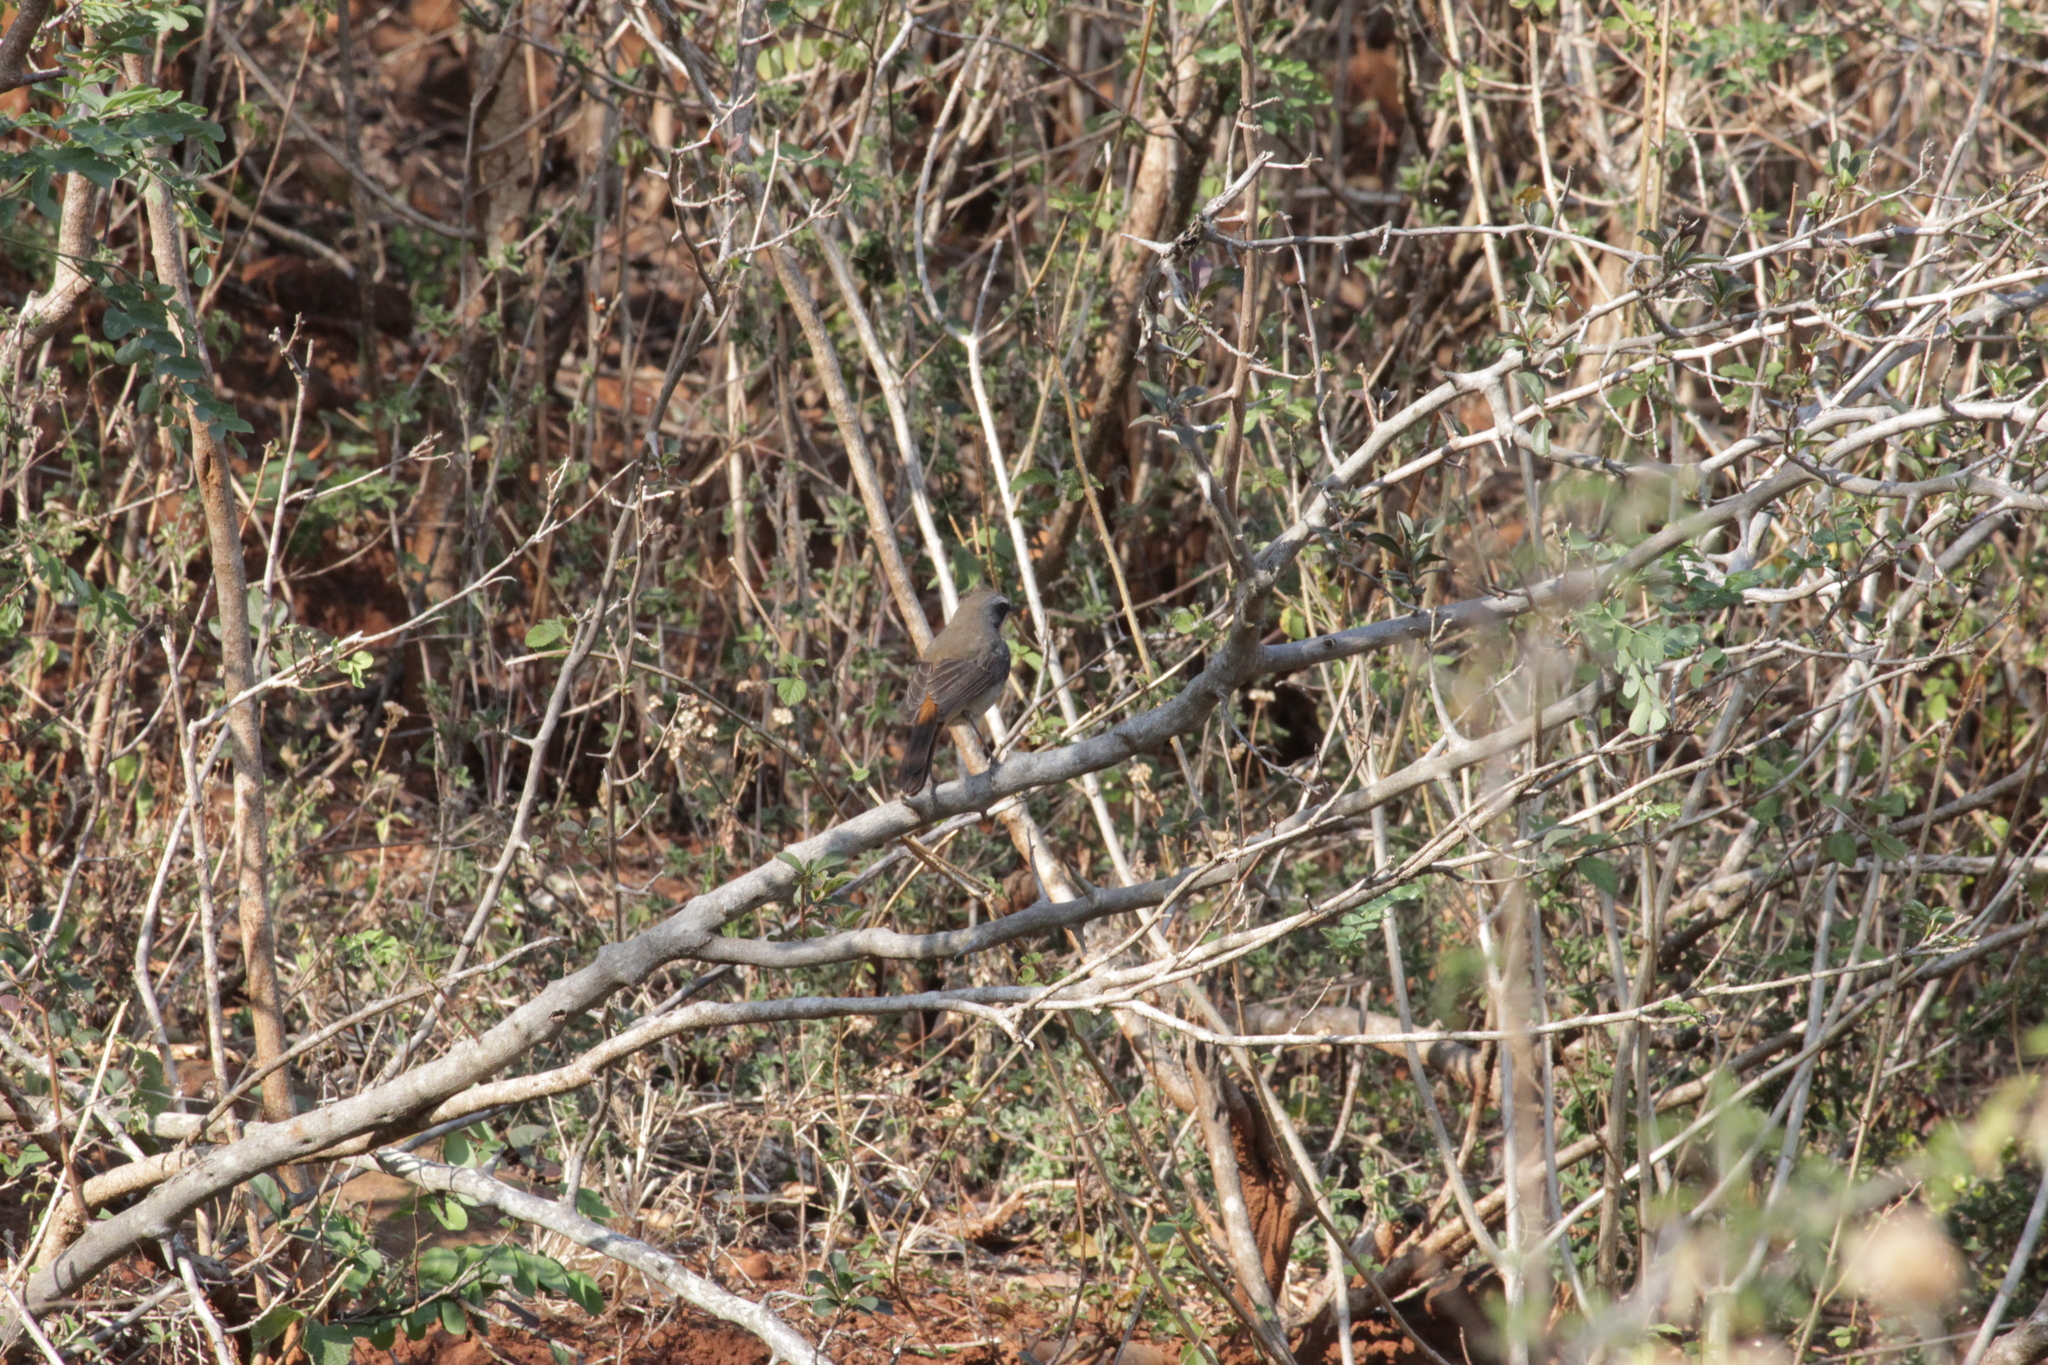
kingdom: Animalia
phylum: Chordata
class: Aves
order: Passeriformes
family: Muscicapidae
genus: Cossypha
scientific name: Cossypha caffra
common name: Cape robin-chat
